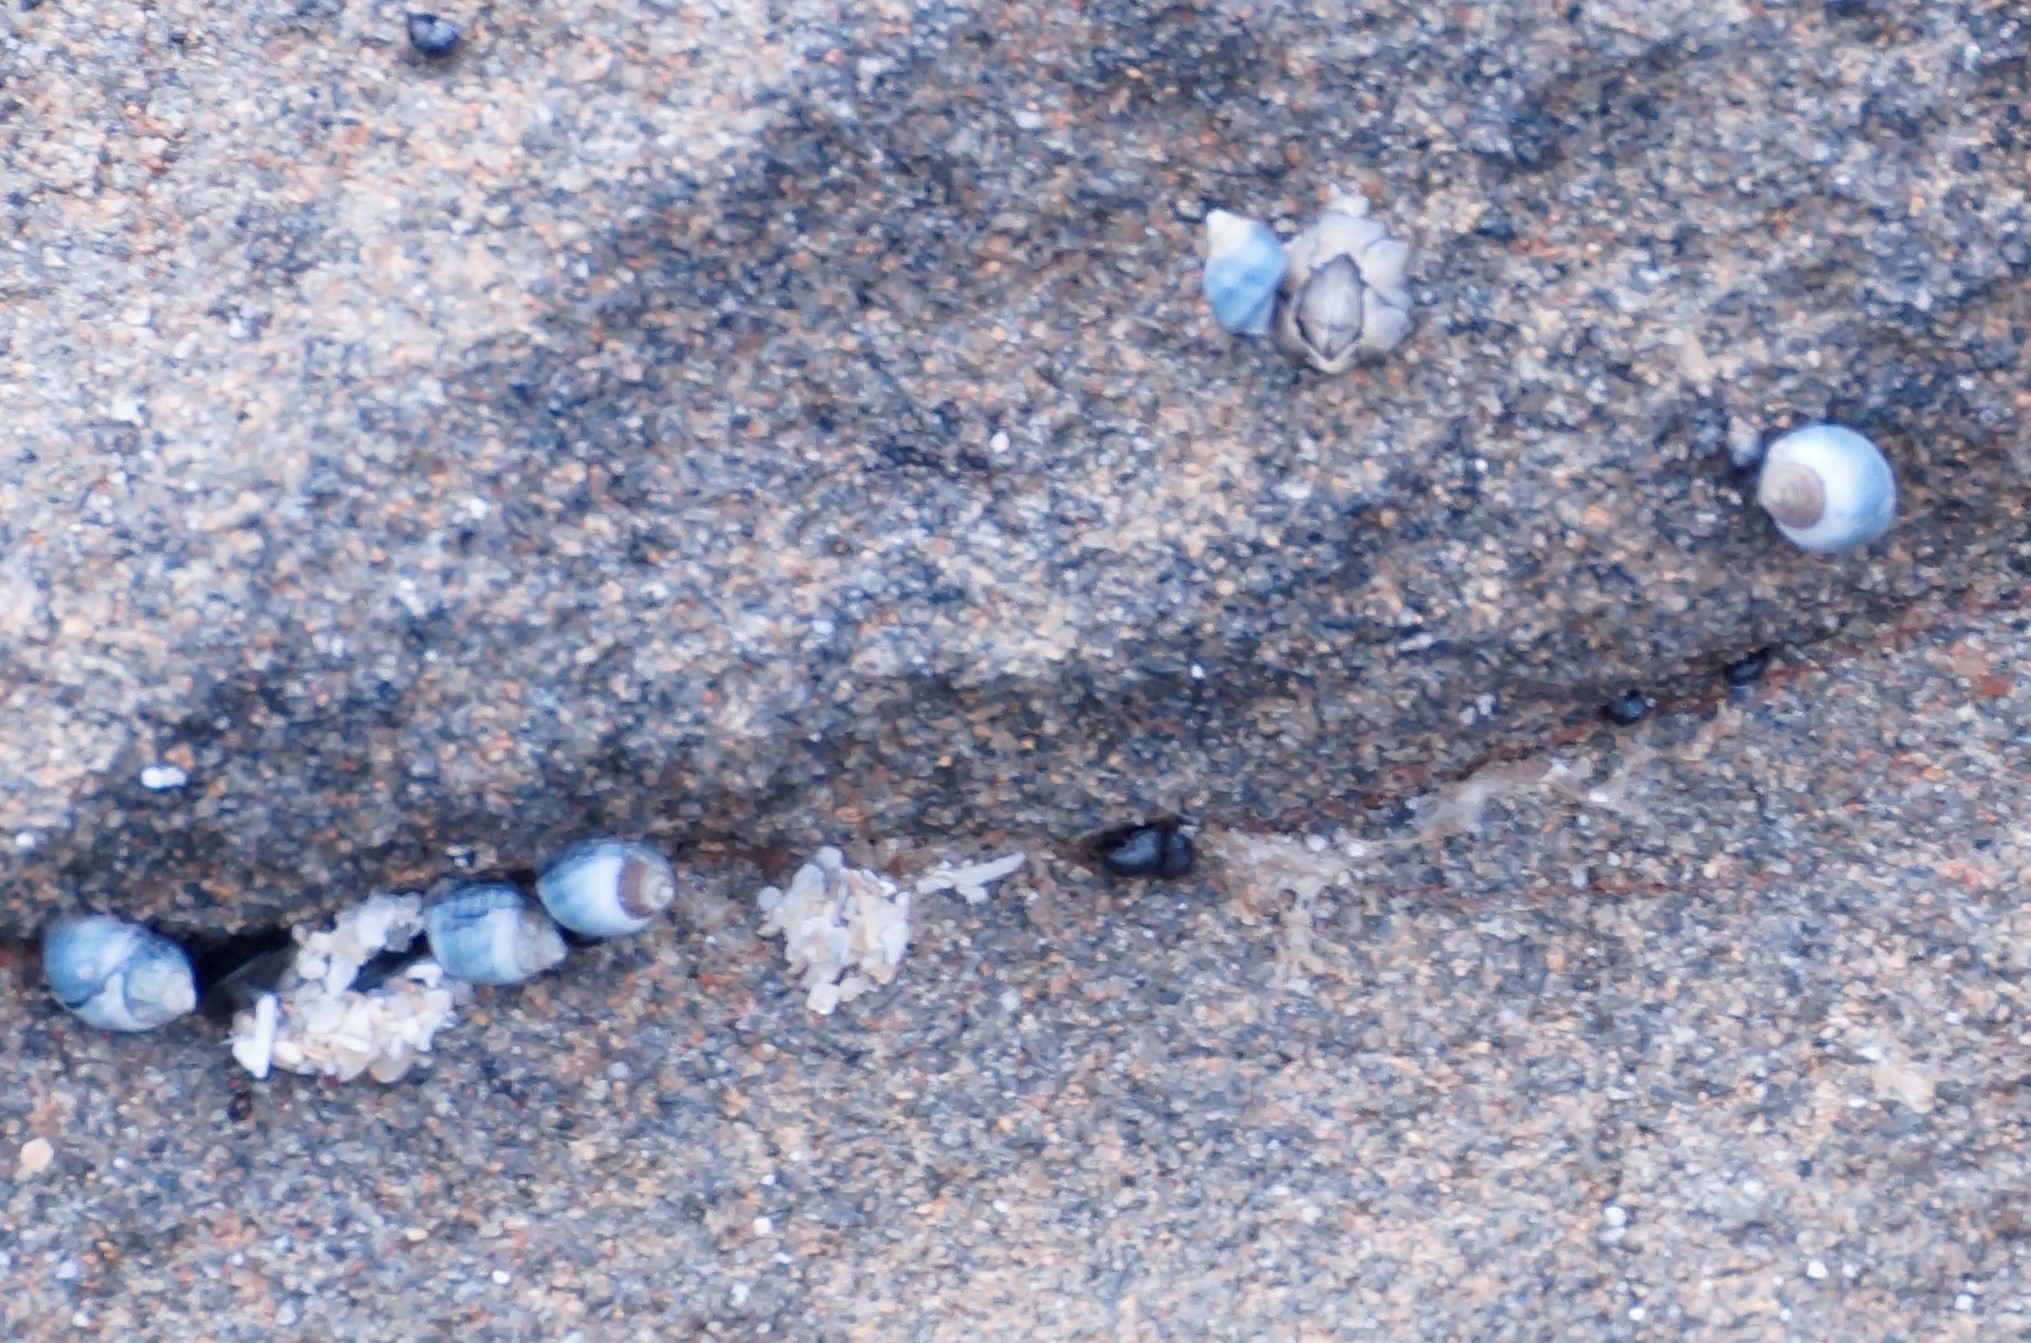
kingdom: Animalia
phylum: Mollusca
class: Gastropoda
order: Littorinimorpha
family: Littorinidae
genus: Austrolittorina
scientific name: Austrolittorina unifasciata
